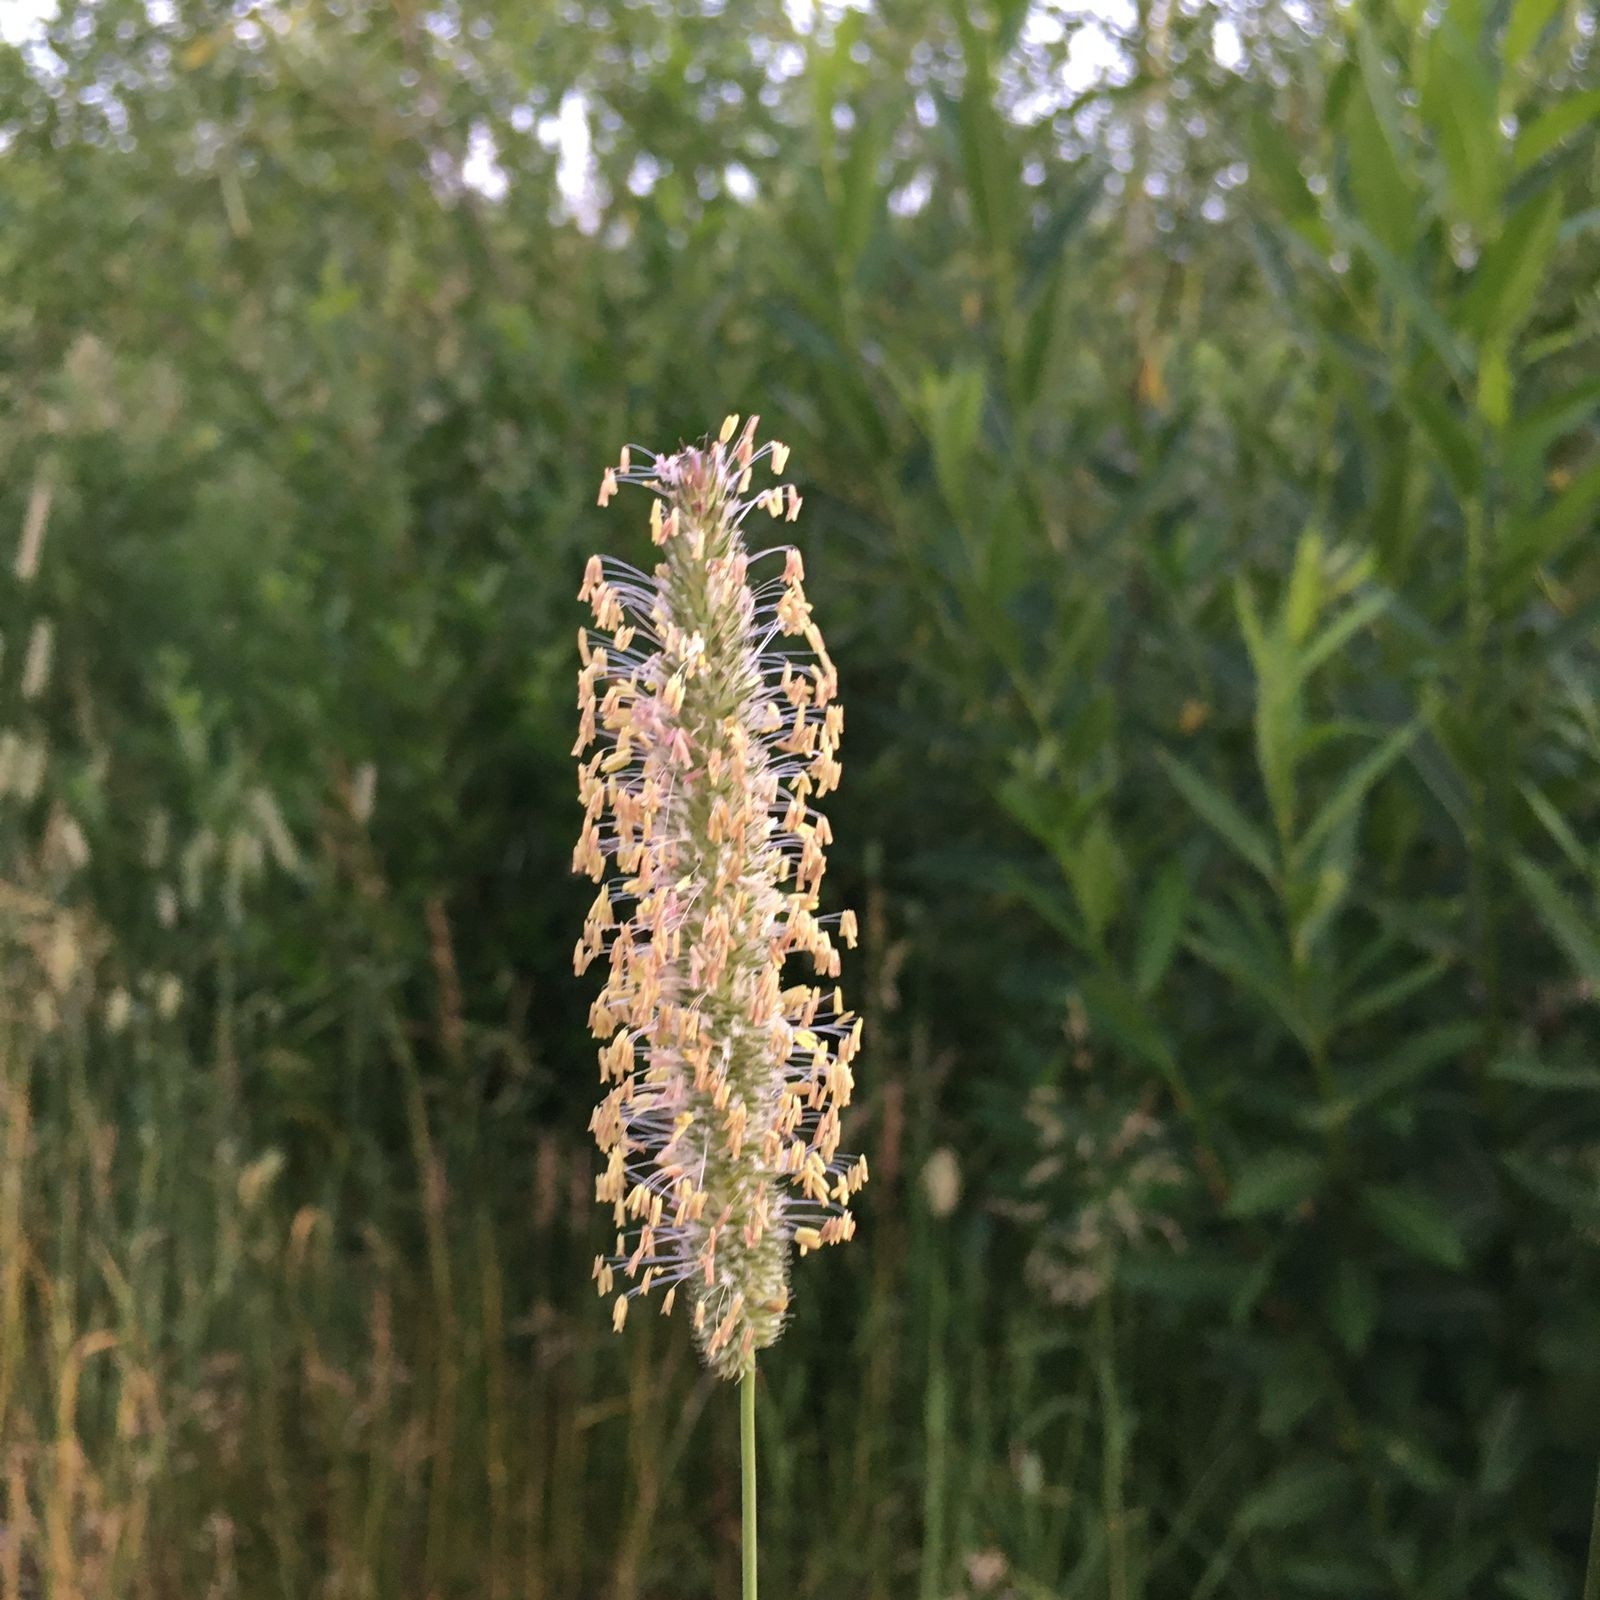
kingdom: Plantae
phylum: Tracheophyta
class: Liliopsida
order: Poales
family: Poaceae
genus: Phleum
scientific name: Phleum pratense
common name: Timothy grass
